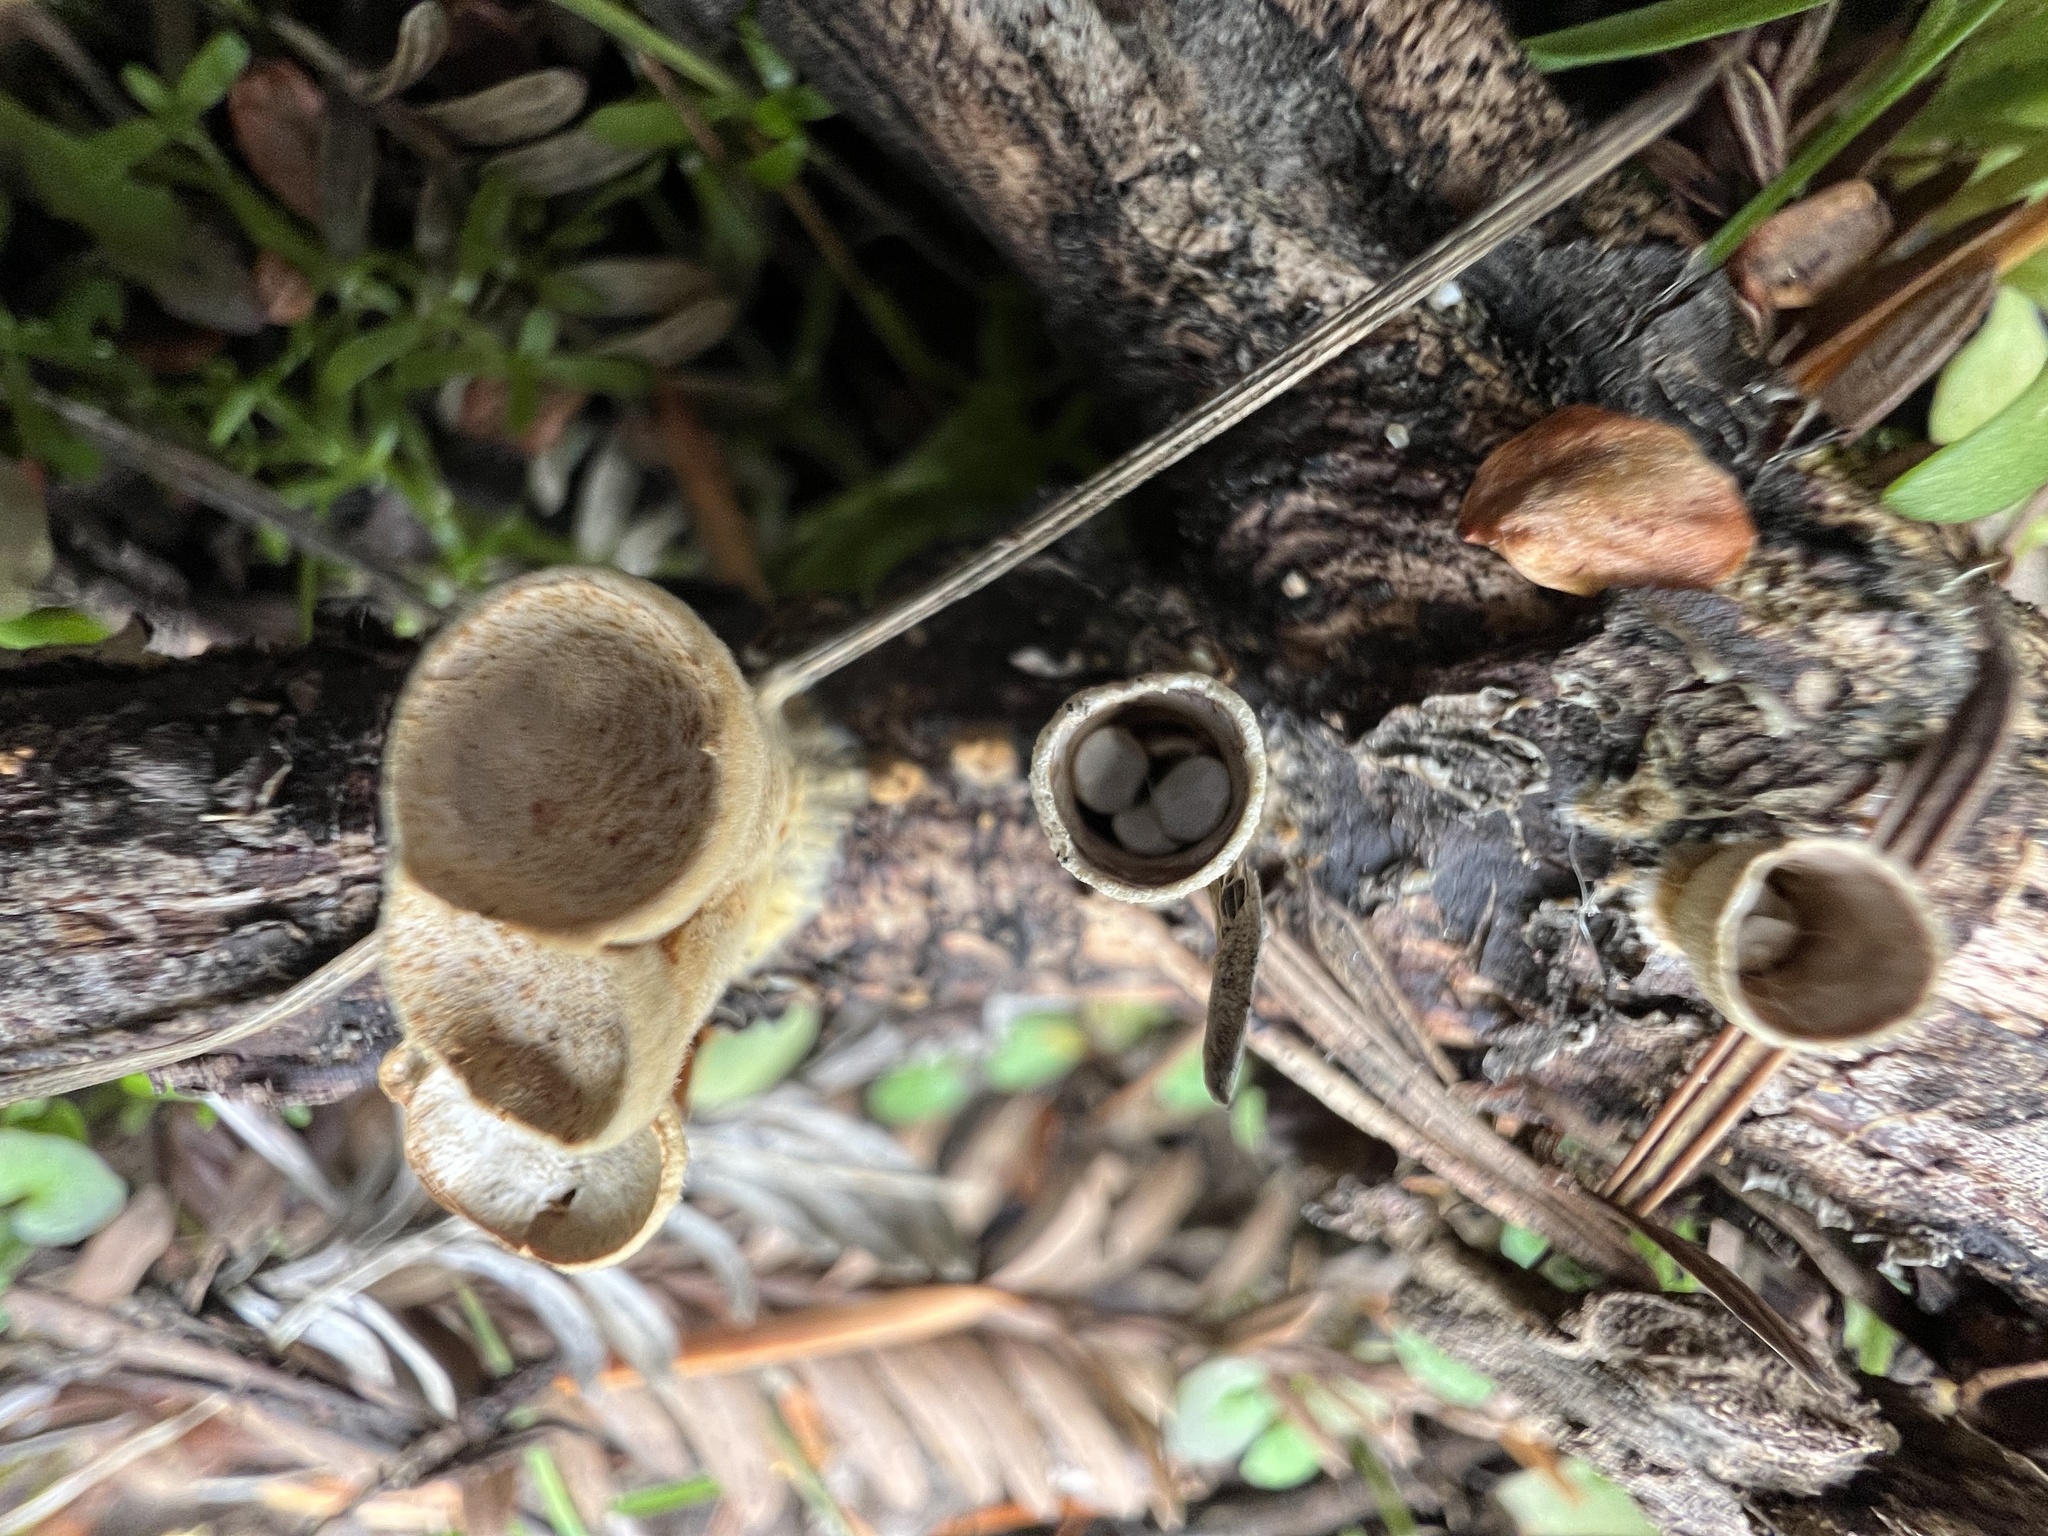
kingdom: Fungi
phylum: Basidiomycota
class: Agaricomycetes
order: Agaricales
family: Nidulariaceae
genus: Crucibulum
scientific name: Crucibulum laeve
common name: Common bird's nest
